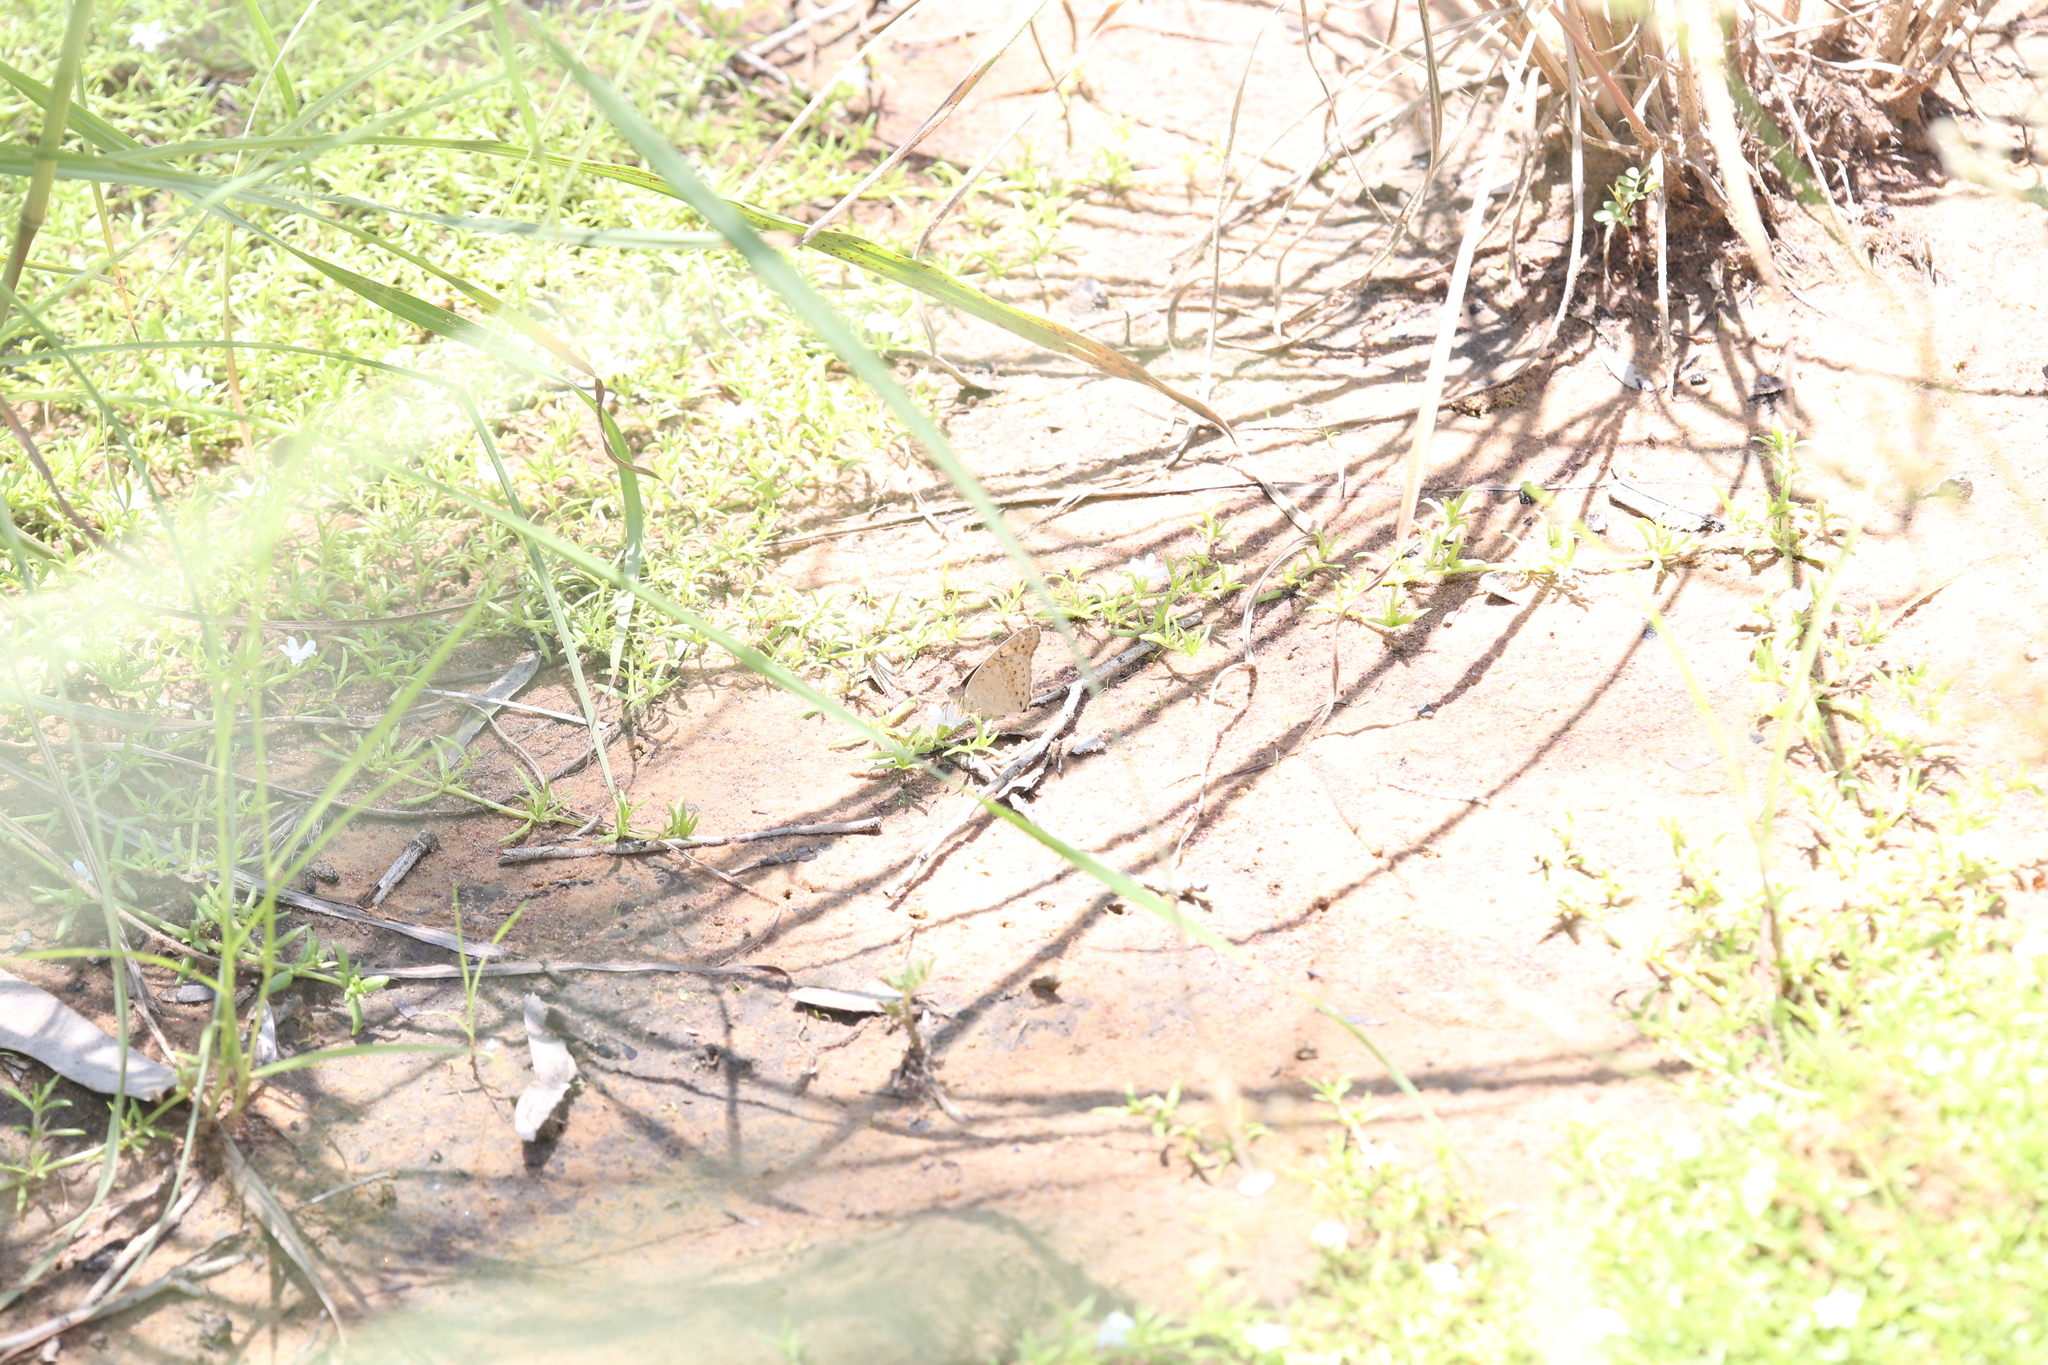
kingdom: Animalia
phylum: Arthropoda
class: Insecta
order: Lepidoptera
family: Nymphalidae
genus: Junonia
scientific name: Junonia villida
